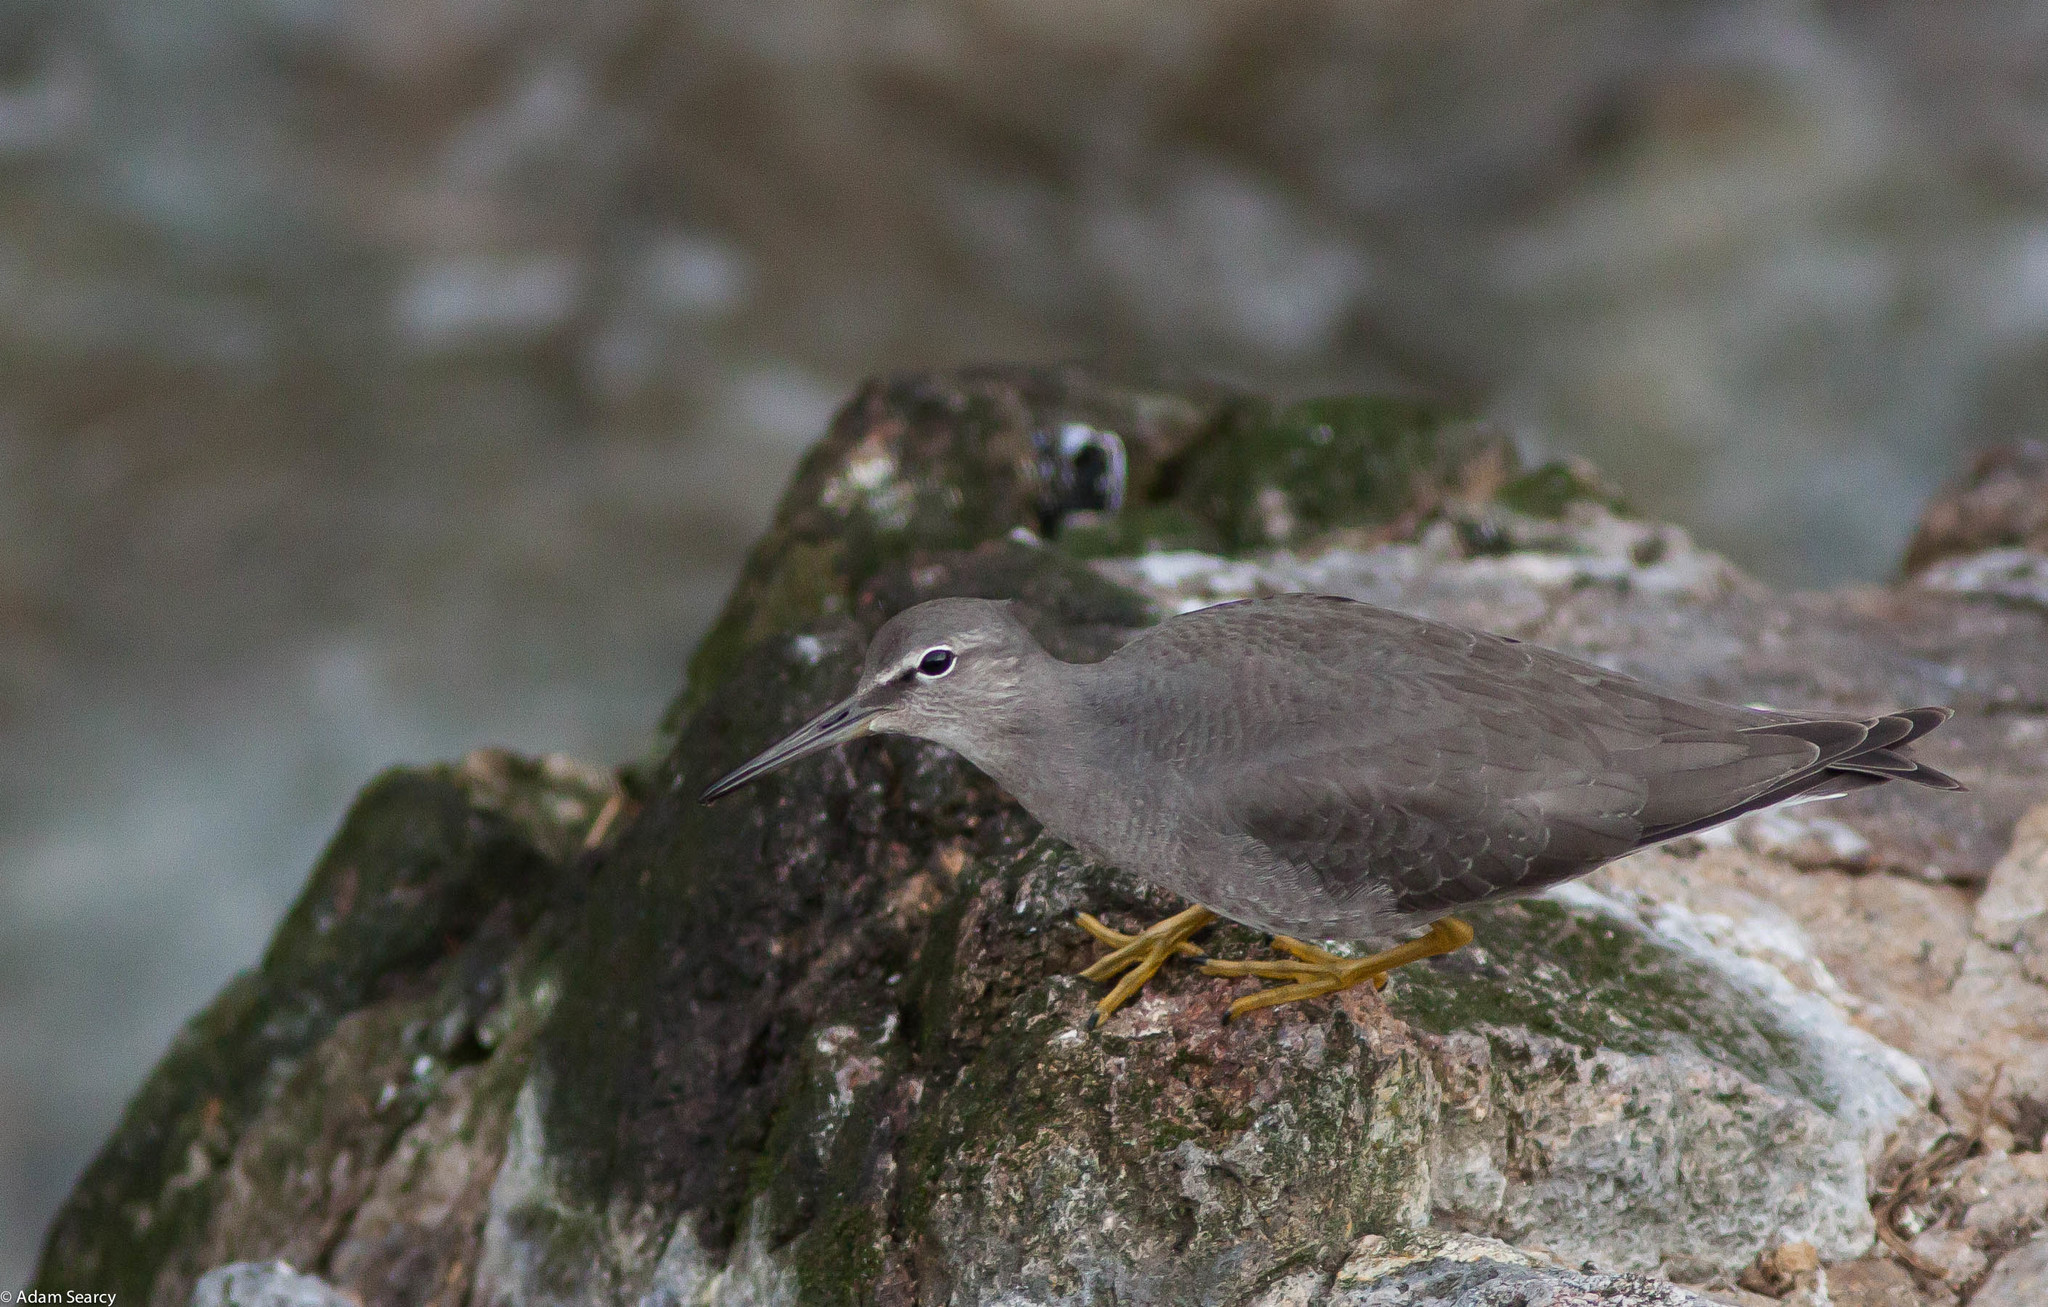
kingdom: Animalia
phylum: Chordata
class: Aves
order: Charadriiformes
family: Scolopacidae
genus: Tringa
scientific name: Tringa incana
